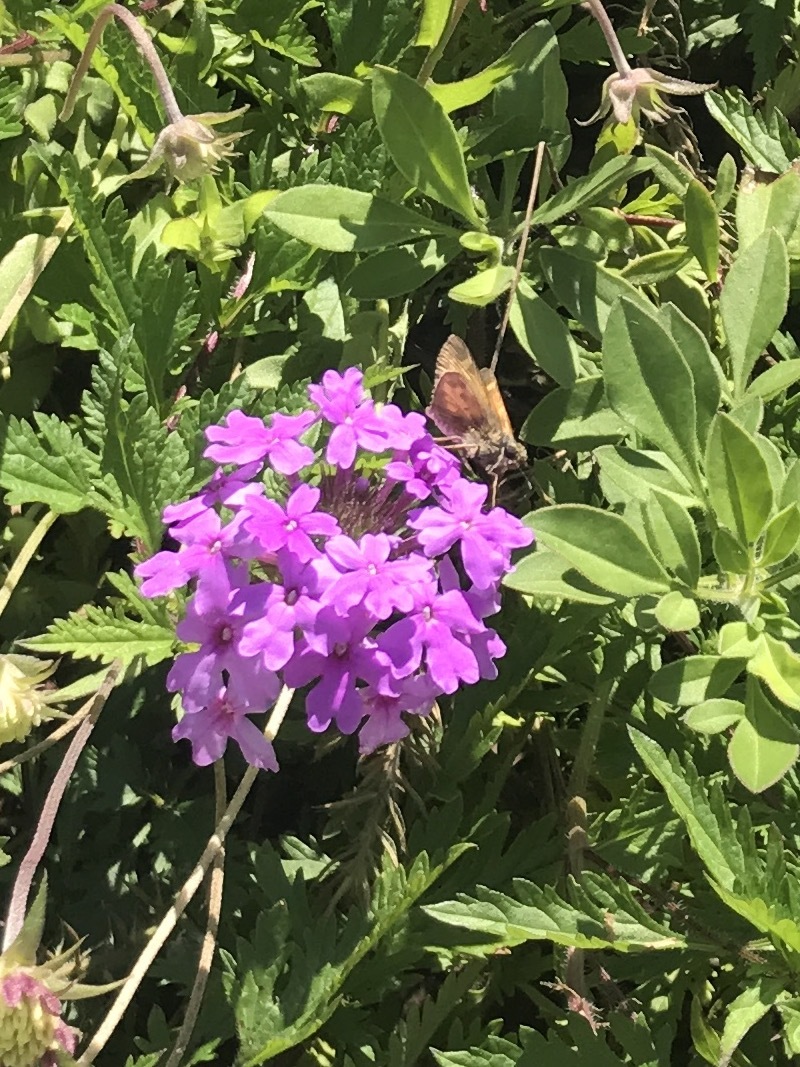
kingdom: Animalia
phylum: Arthropoda
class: Insecta
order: Lepidoptera
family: Hesperiidae
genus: Atalopedes
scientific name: Atalopedes
